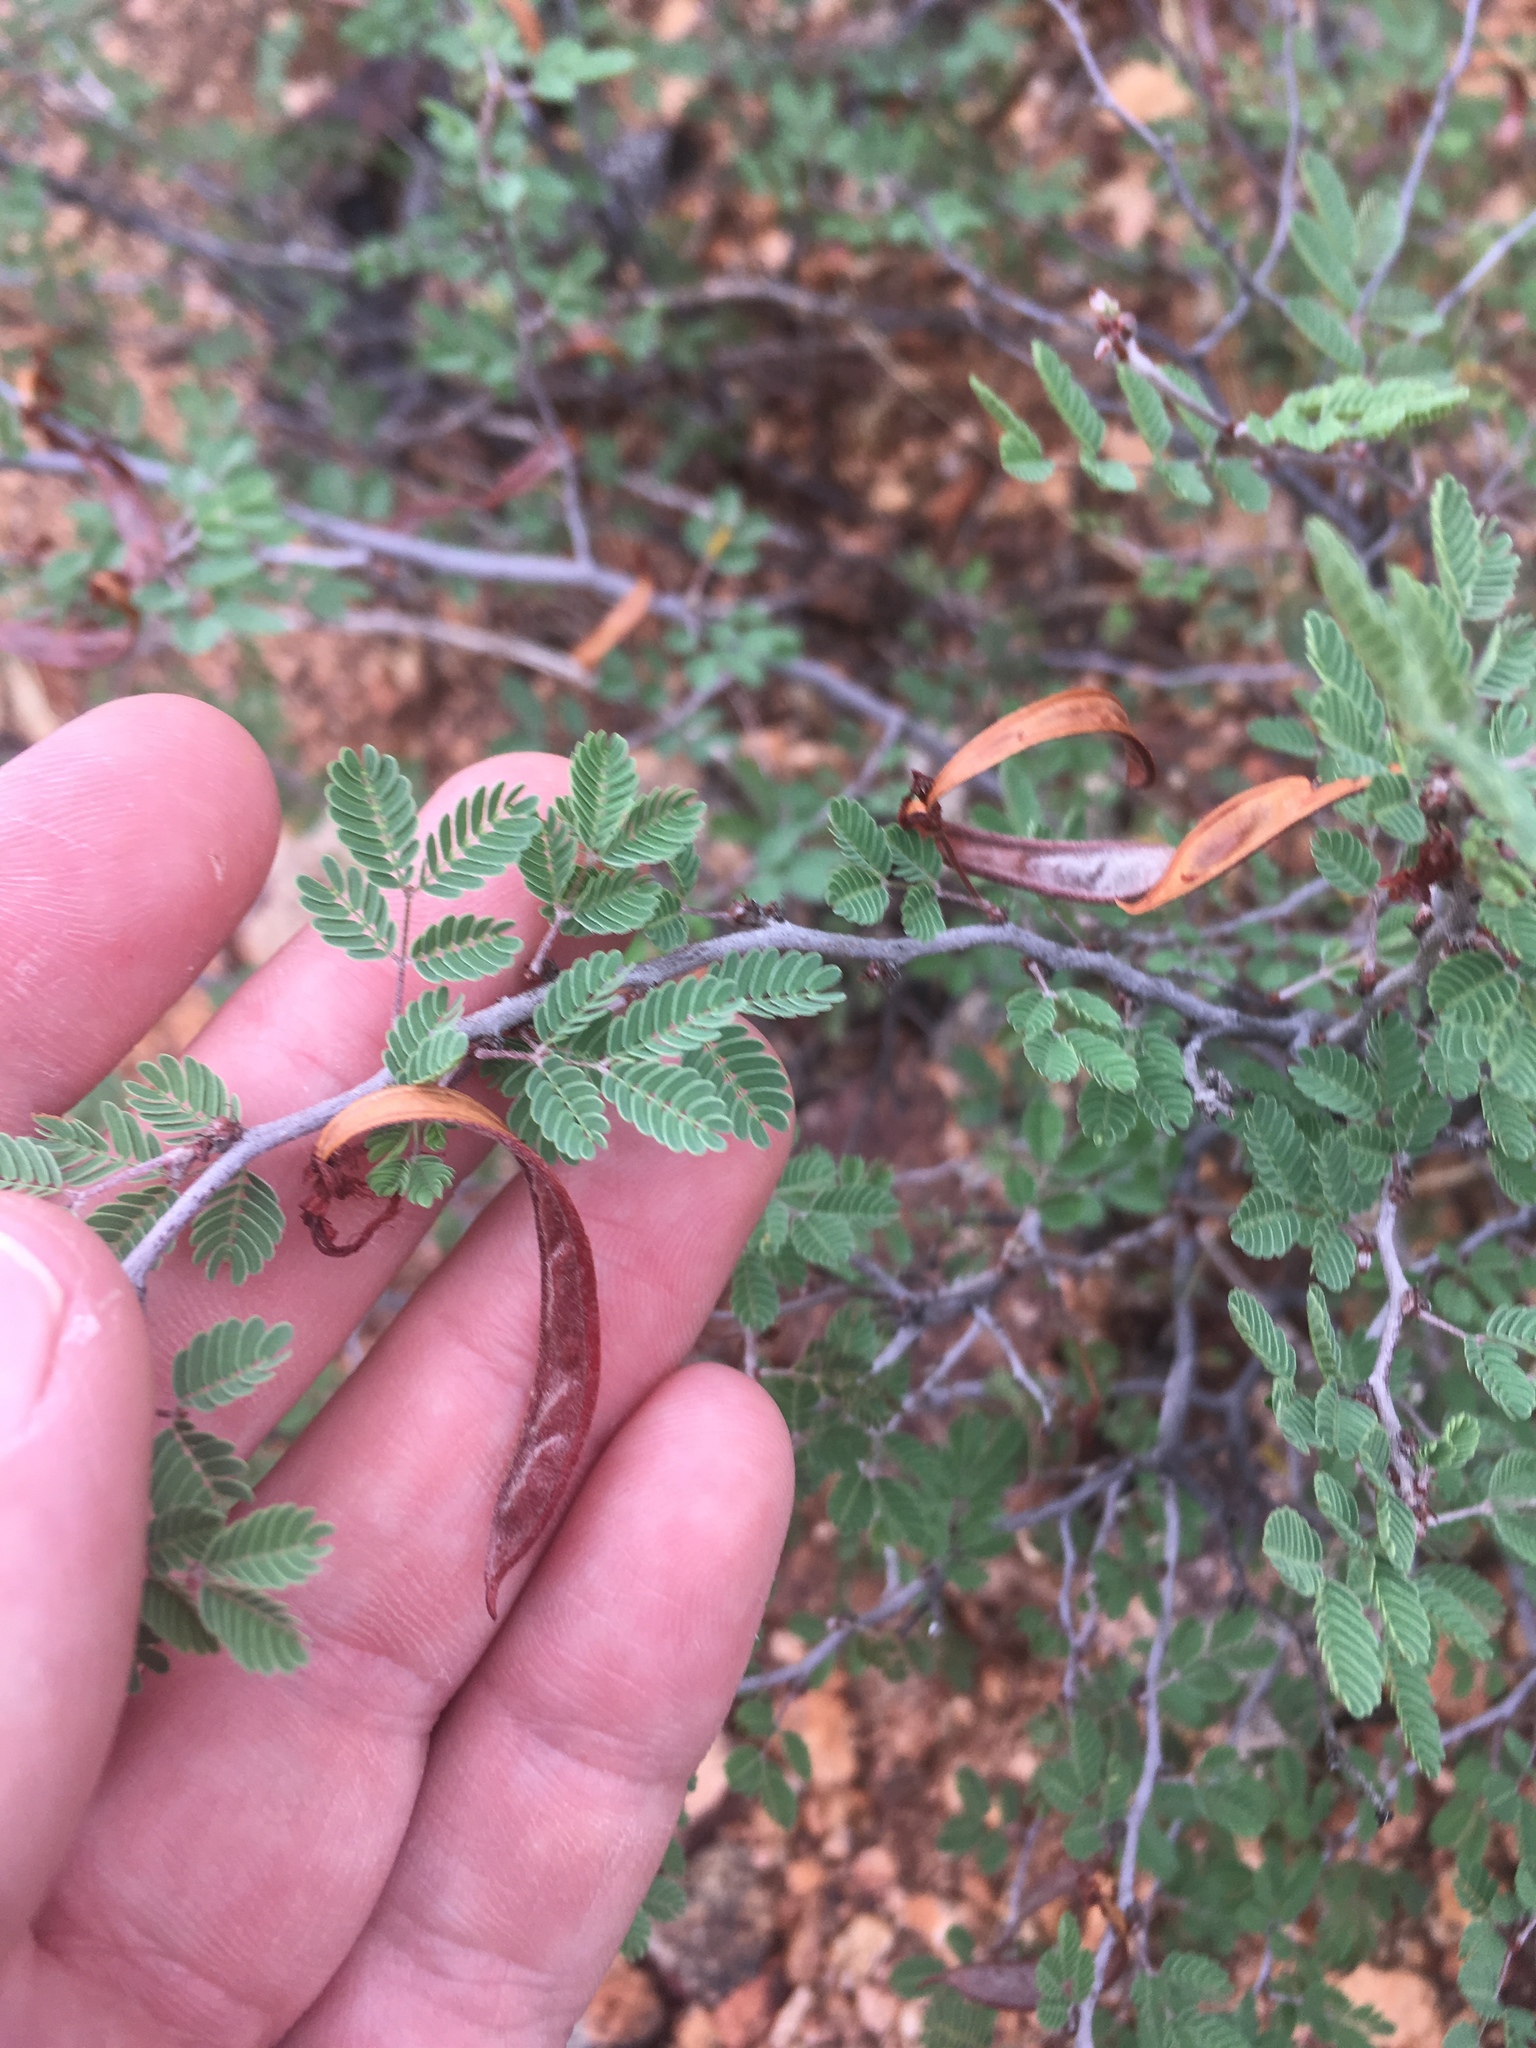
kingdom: Plantae
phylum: Tracheophyta
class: Magnoliopsida
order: Fabales
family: Fabaceae
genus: Calliandra
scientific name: Calliandra eriophylla
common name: Fairy-duster
